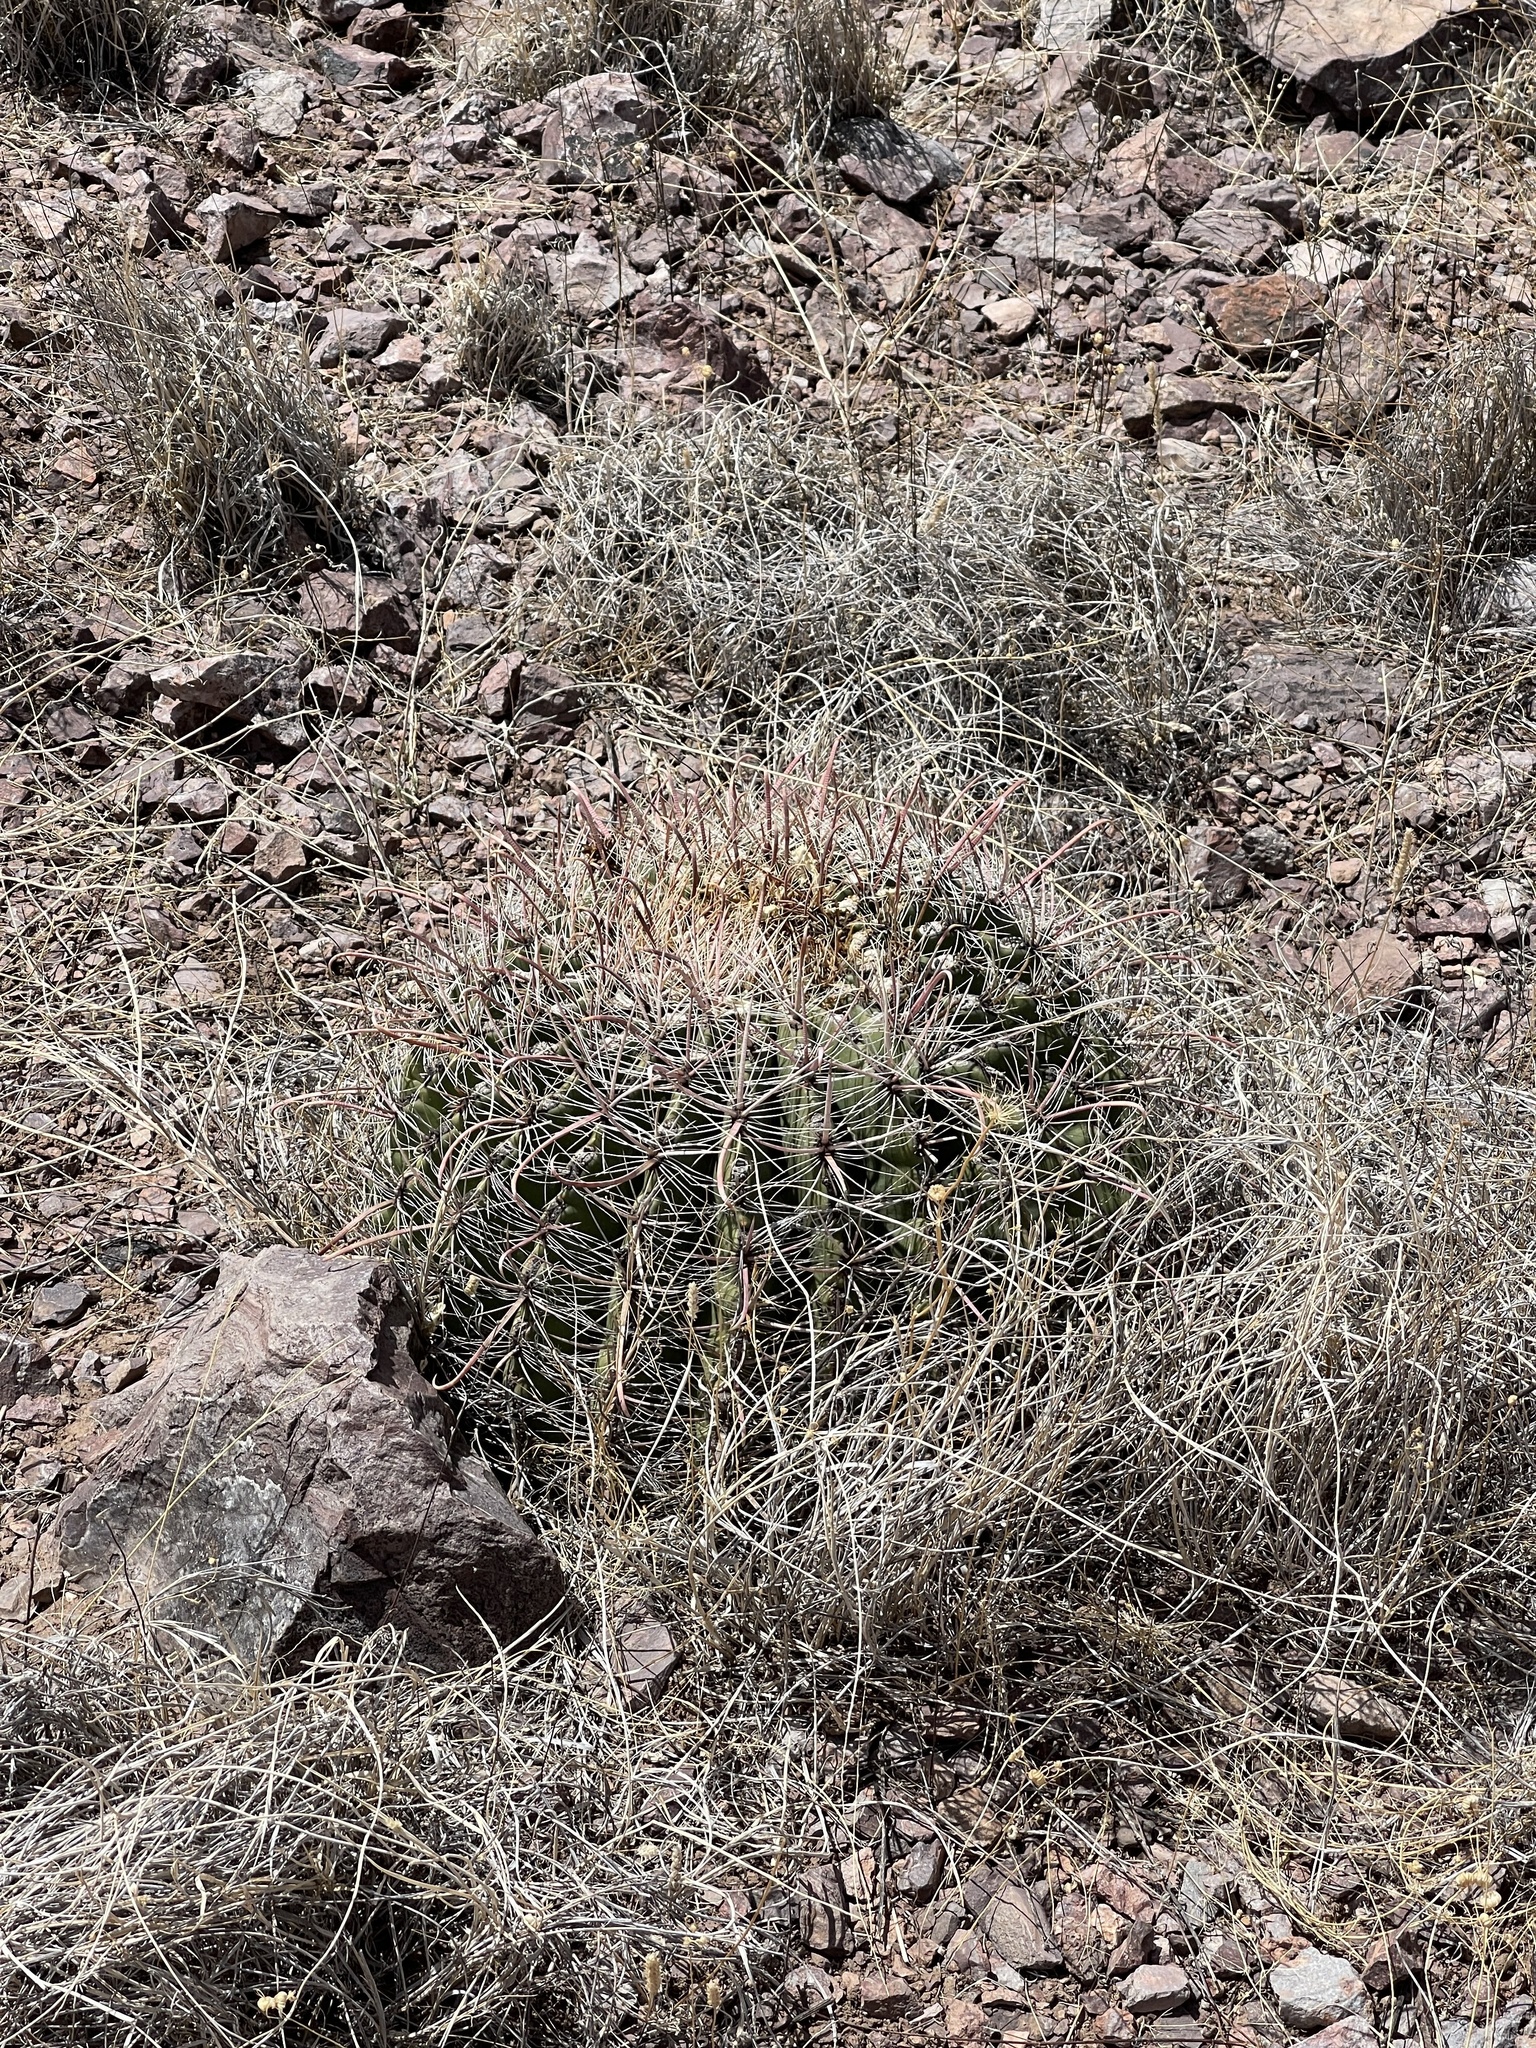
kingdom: Plantae
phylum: Tracheophyta
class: Magnoliopsida
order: Caryophyllales
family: Cactaceae
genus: Ferocactus
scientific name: Ferocactus wislizeni
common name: Candy barrel cactus
